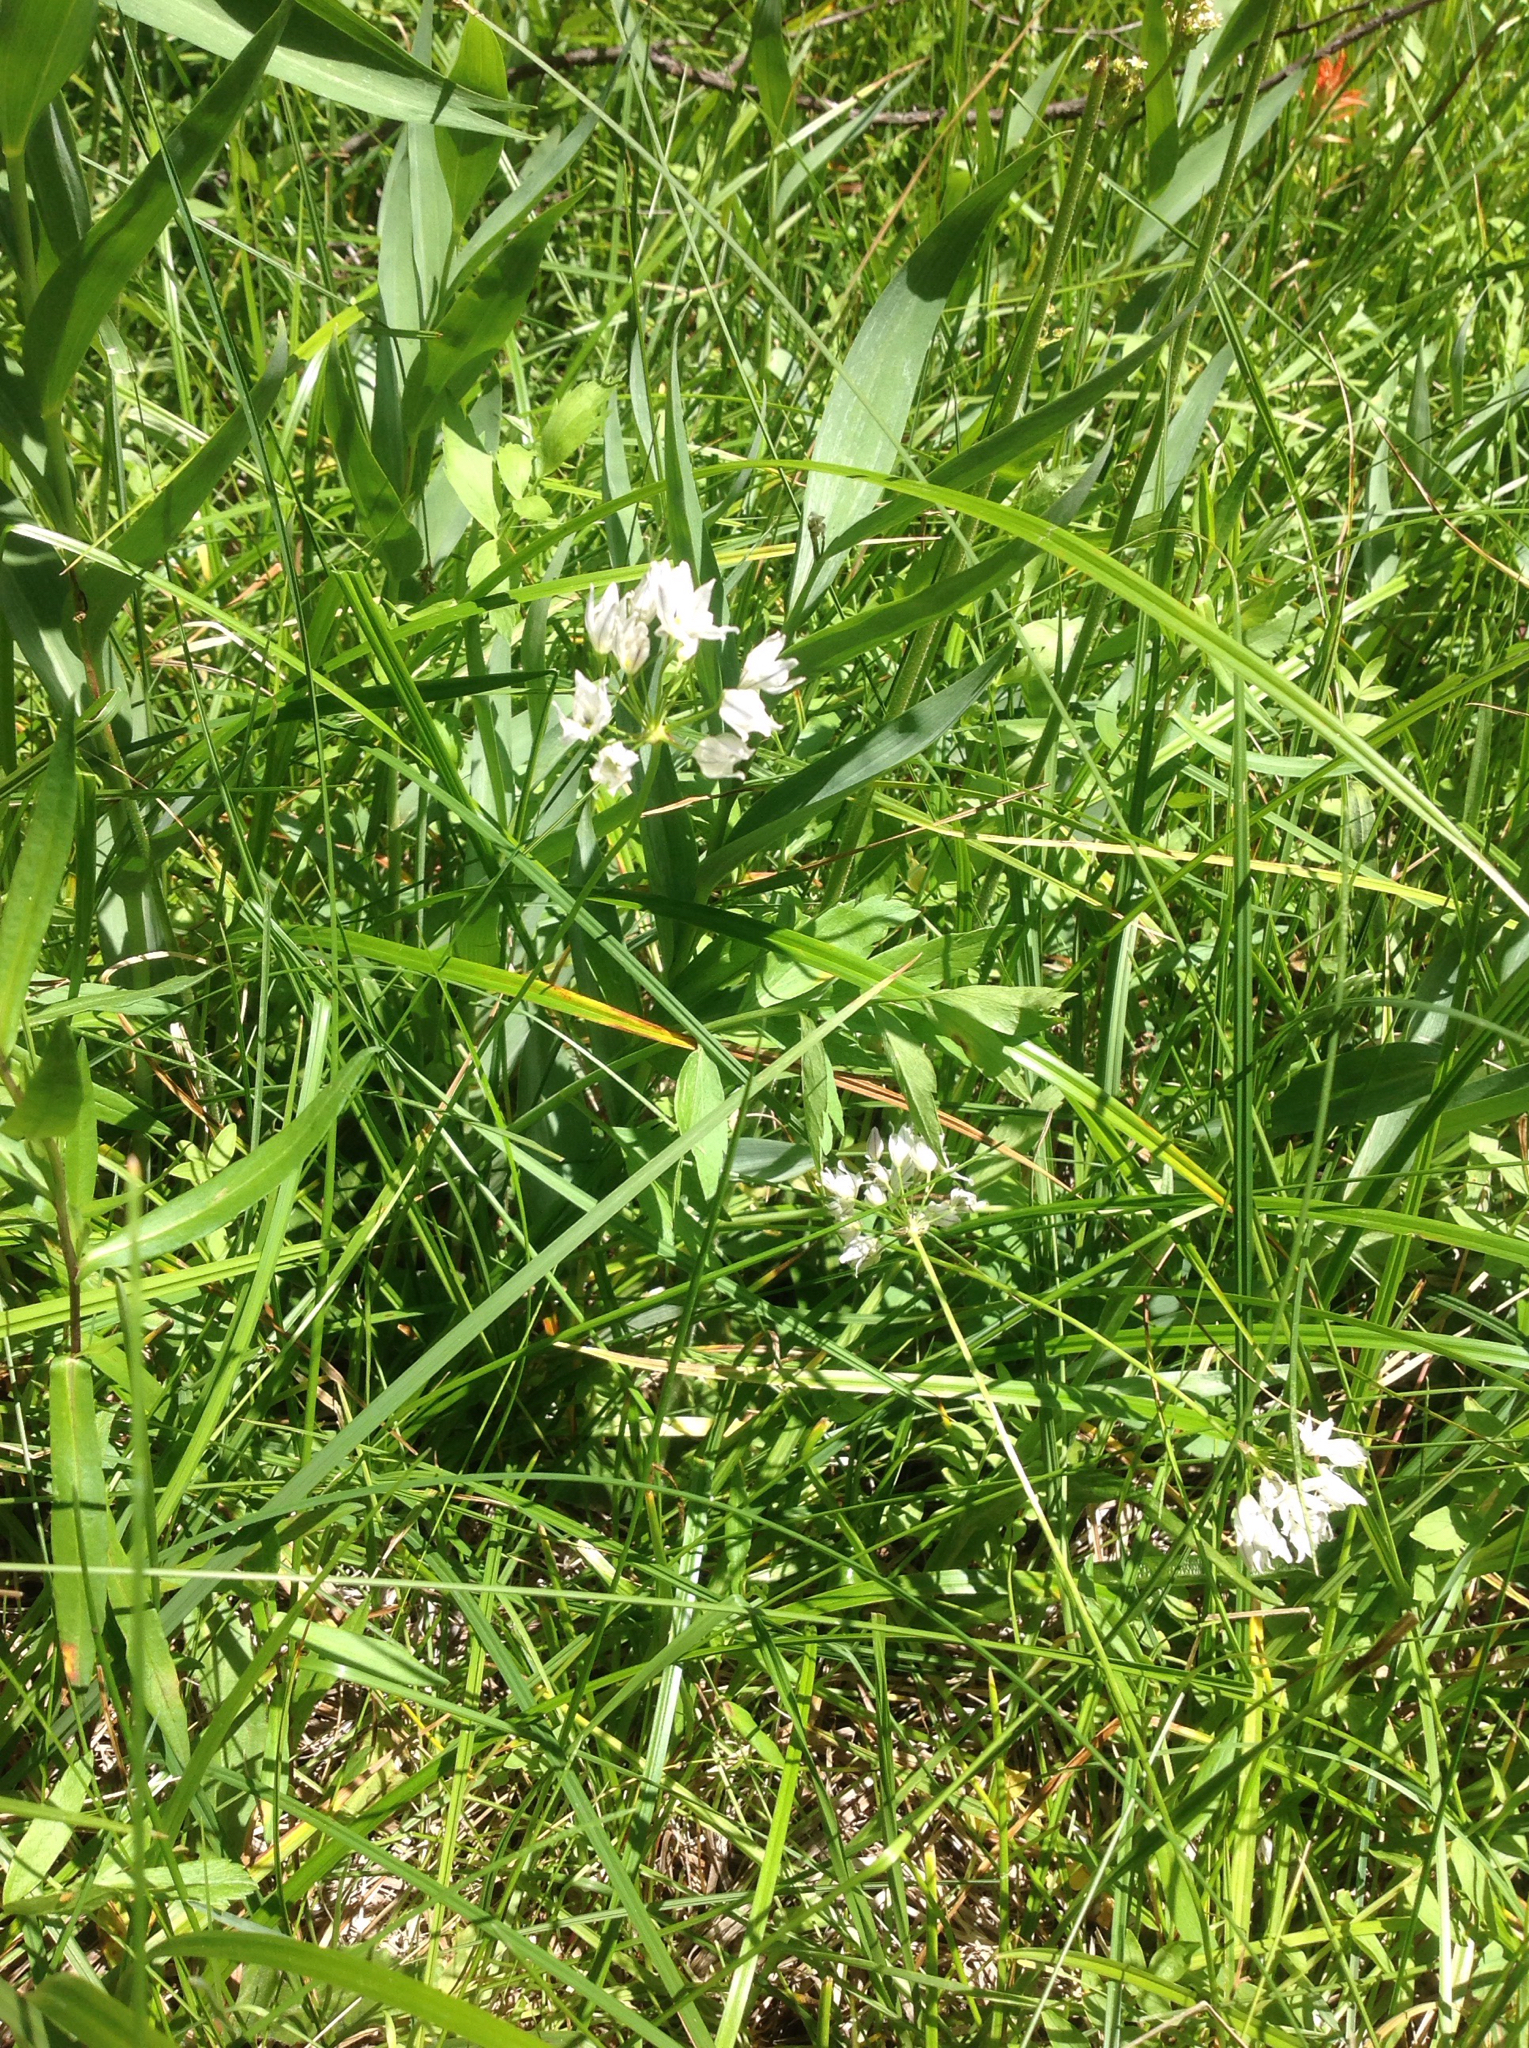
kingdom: Plantae
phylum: Tracheophyta
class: Liliopsida
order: Asparagales
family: Asparagaceae
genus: Triteleia
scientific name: Triteleia hyacinthina
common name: White brodiaea
